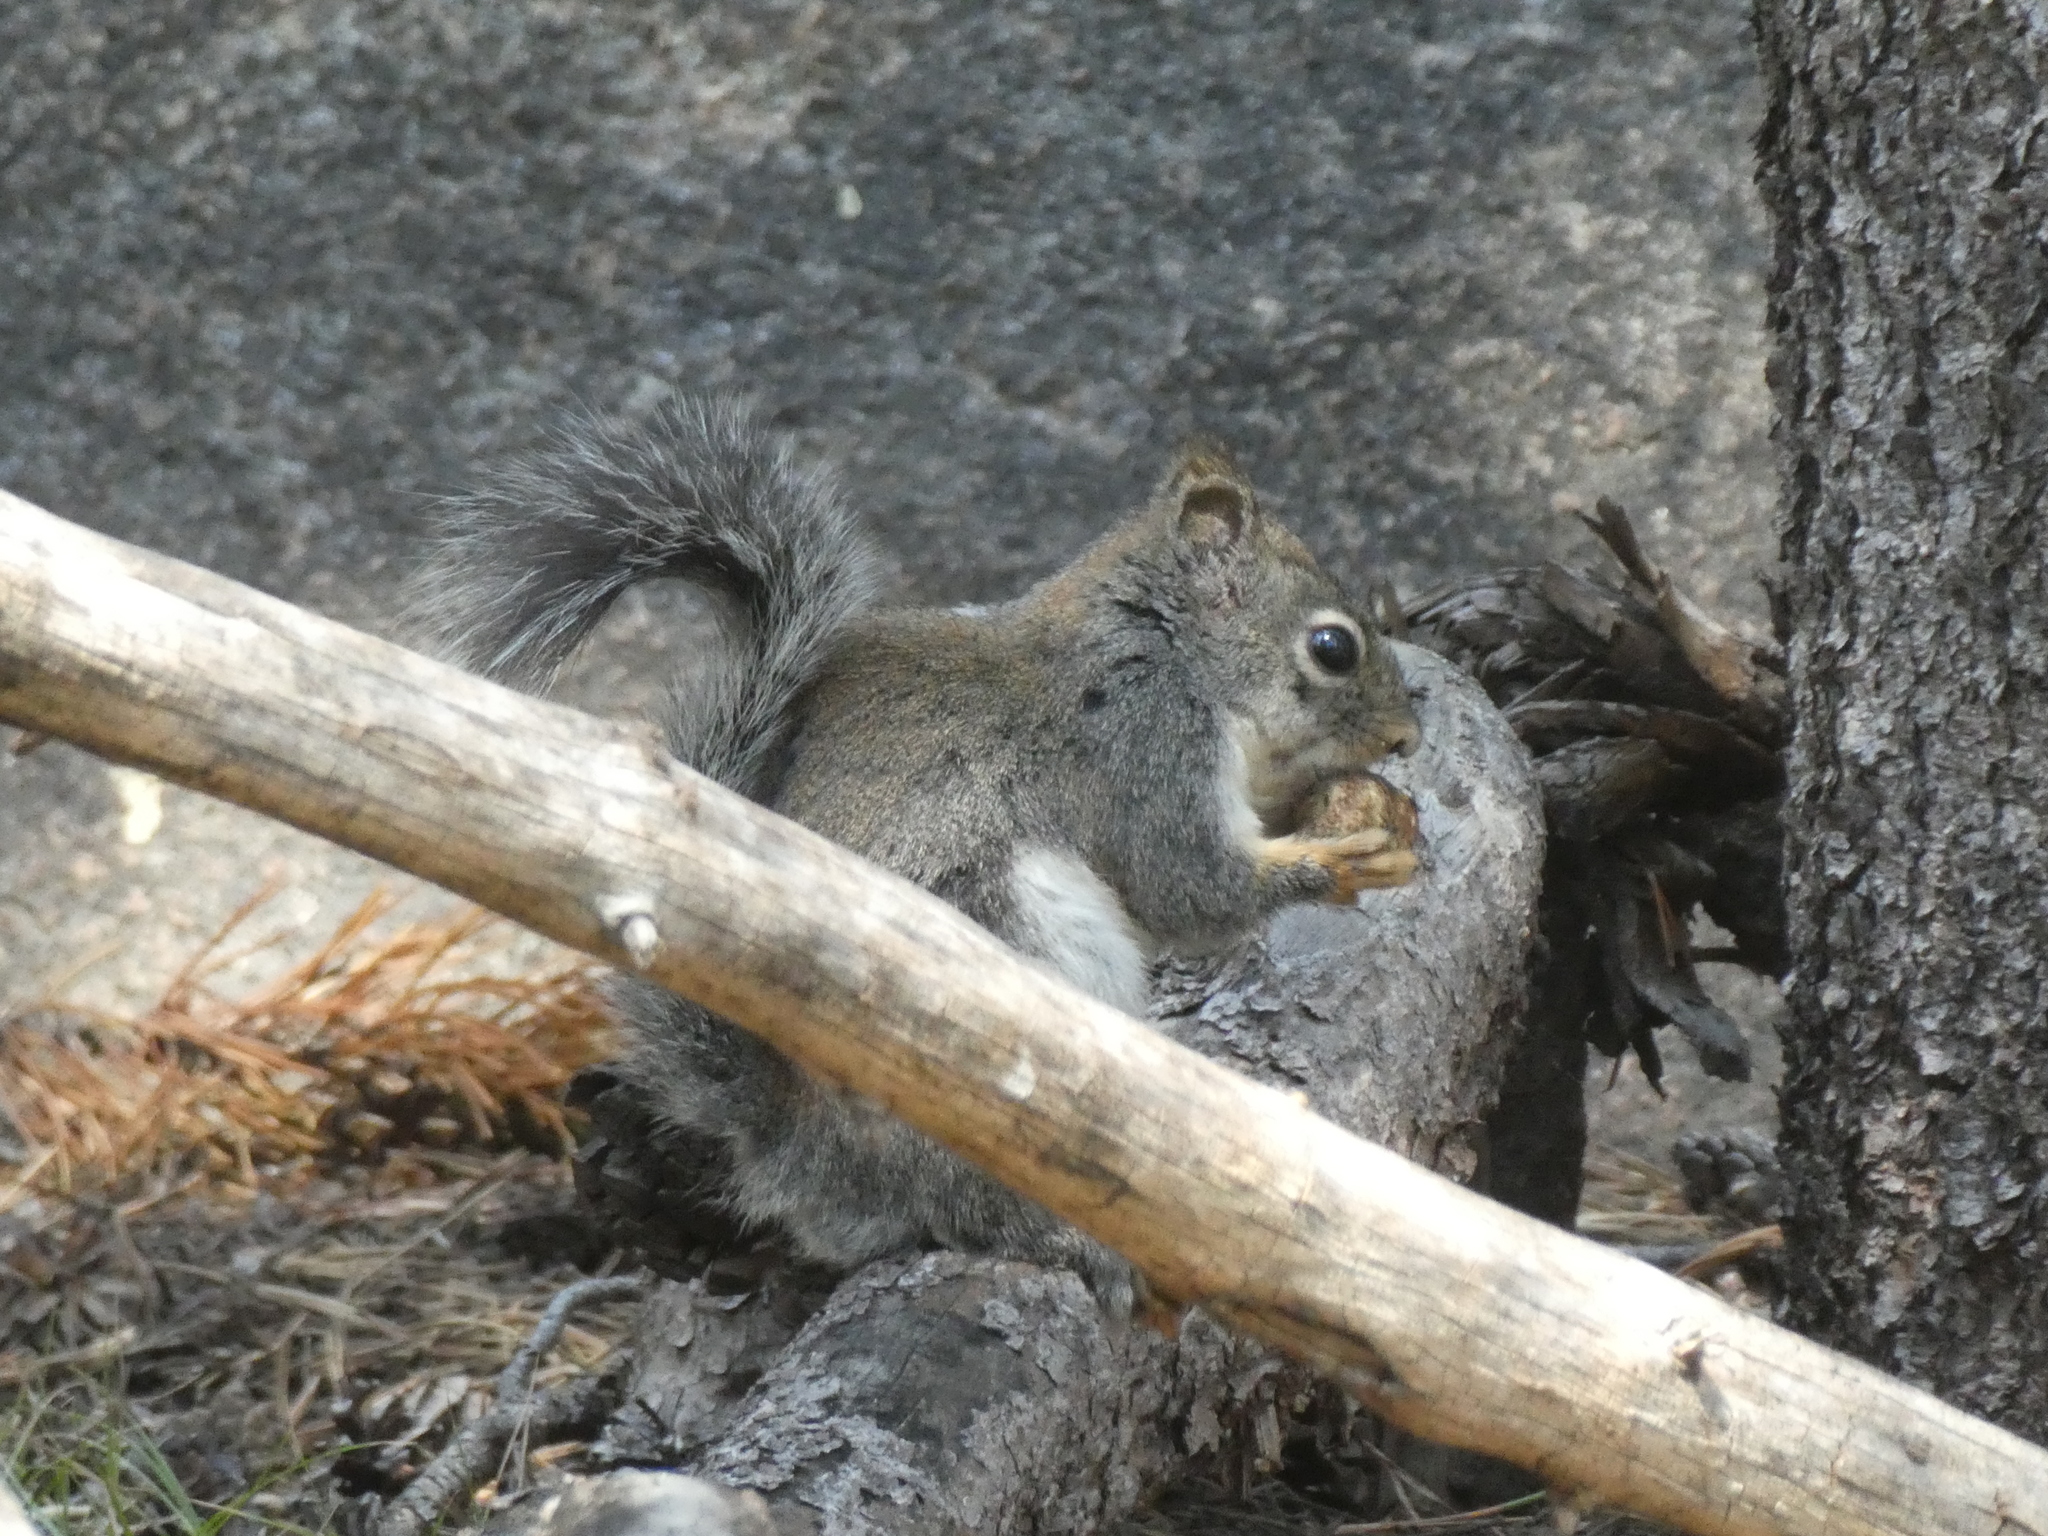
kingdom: Animalia
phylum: Chordata
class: Mammalia
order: Rodentia
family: Sciuridae
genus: Tamiasciurus
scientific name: Tamiasciurus douglasii
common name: Douglas's squirrel
